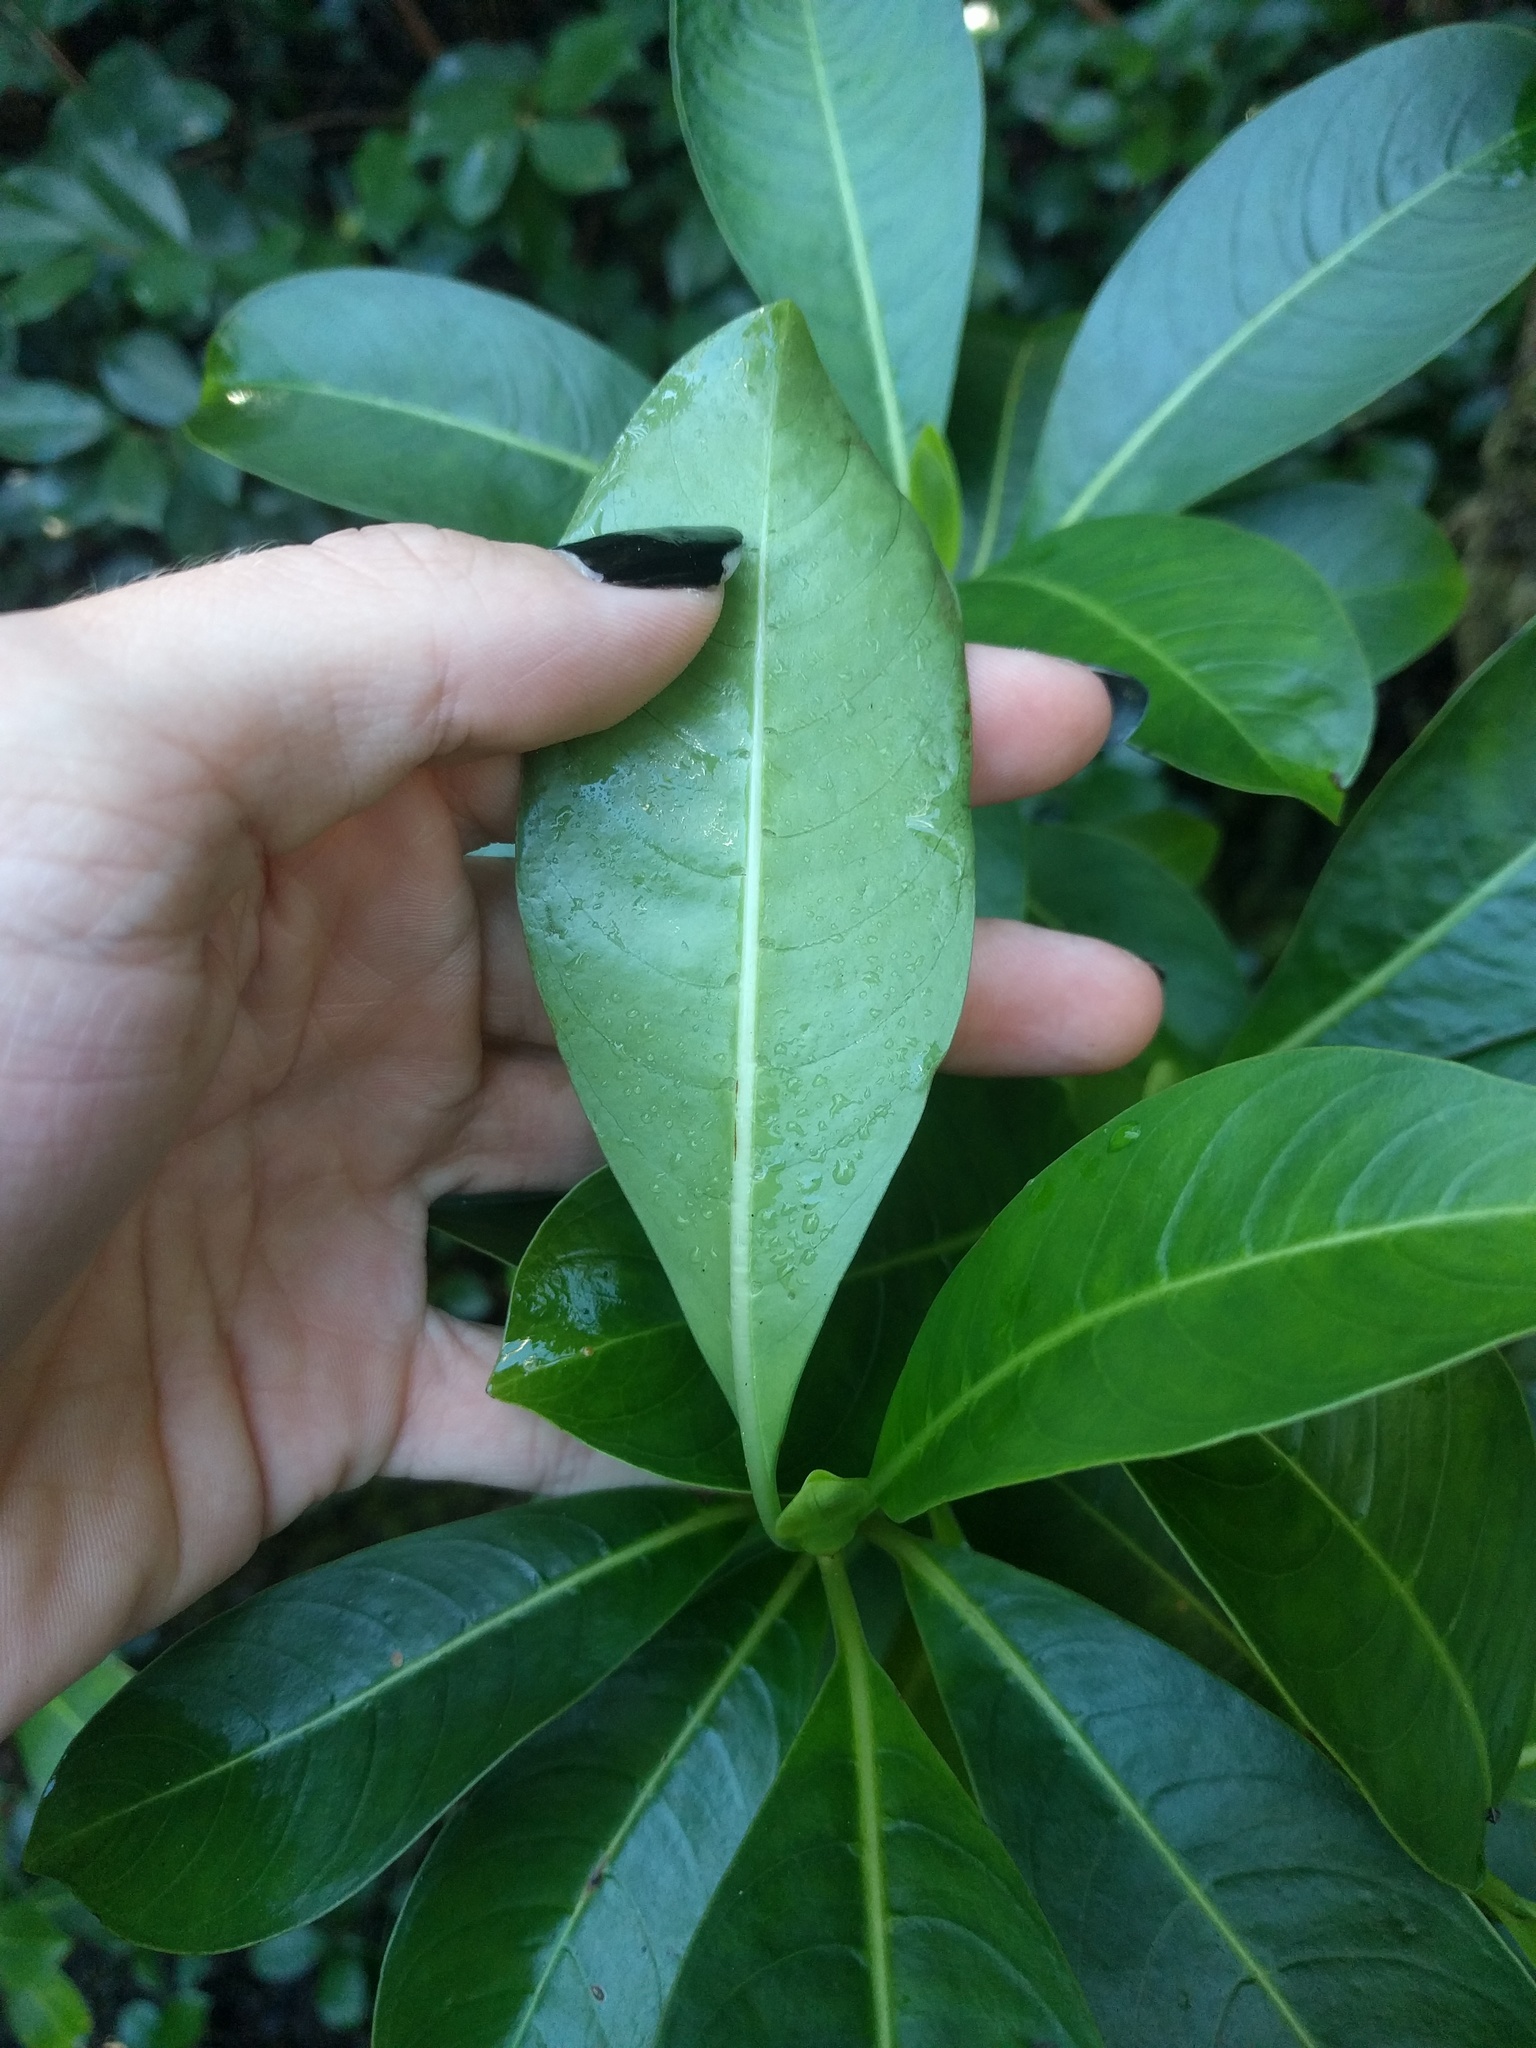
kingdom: Plantae
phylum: Tracheophyta
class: Magnoliopsida
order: Gentianales
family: Rubiaceae
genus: Psychotria
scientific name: Psychotria mariniana
